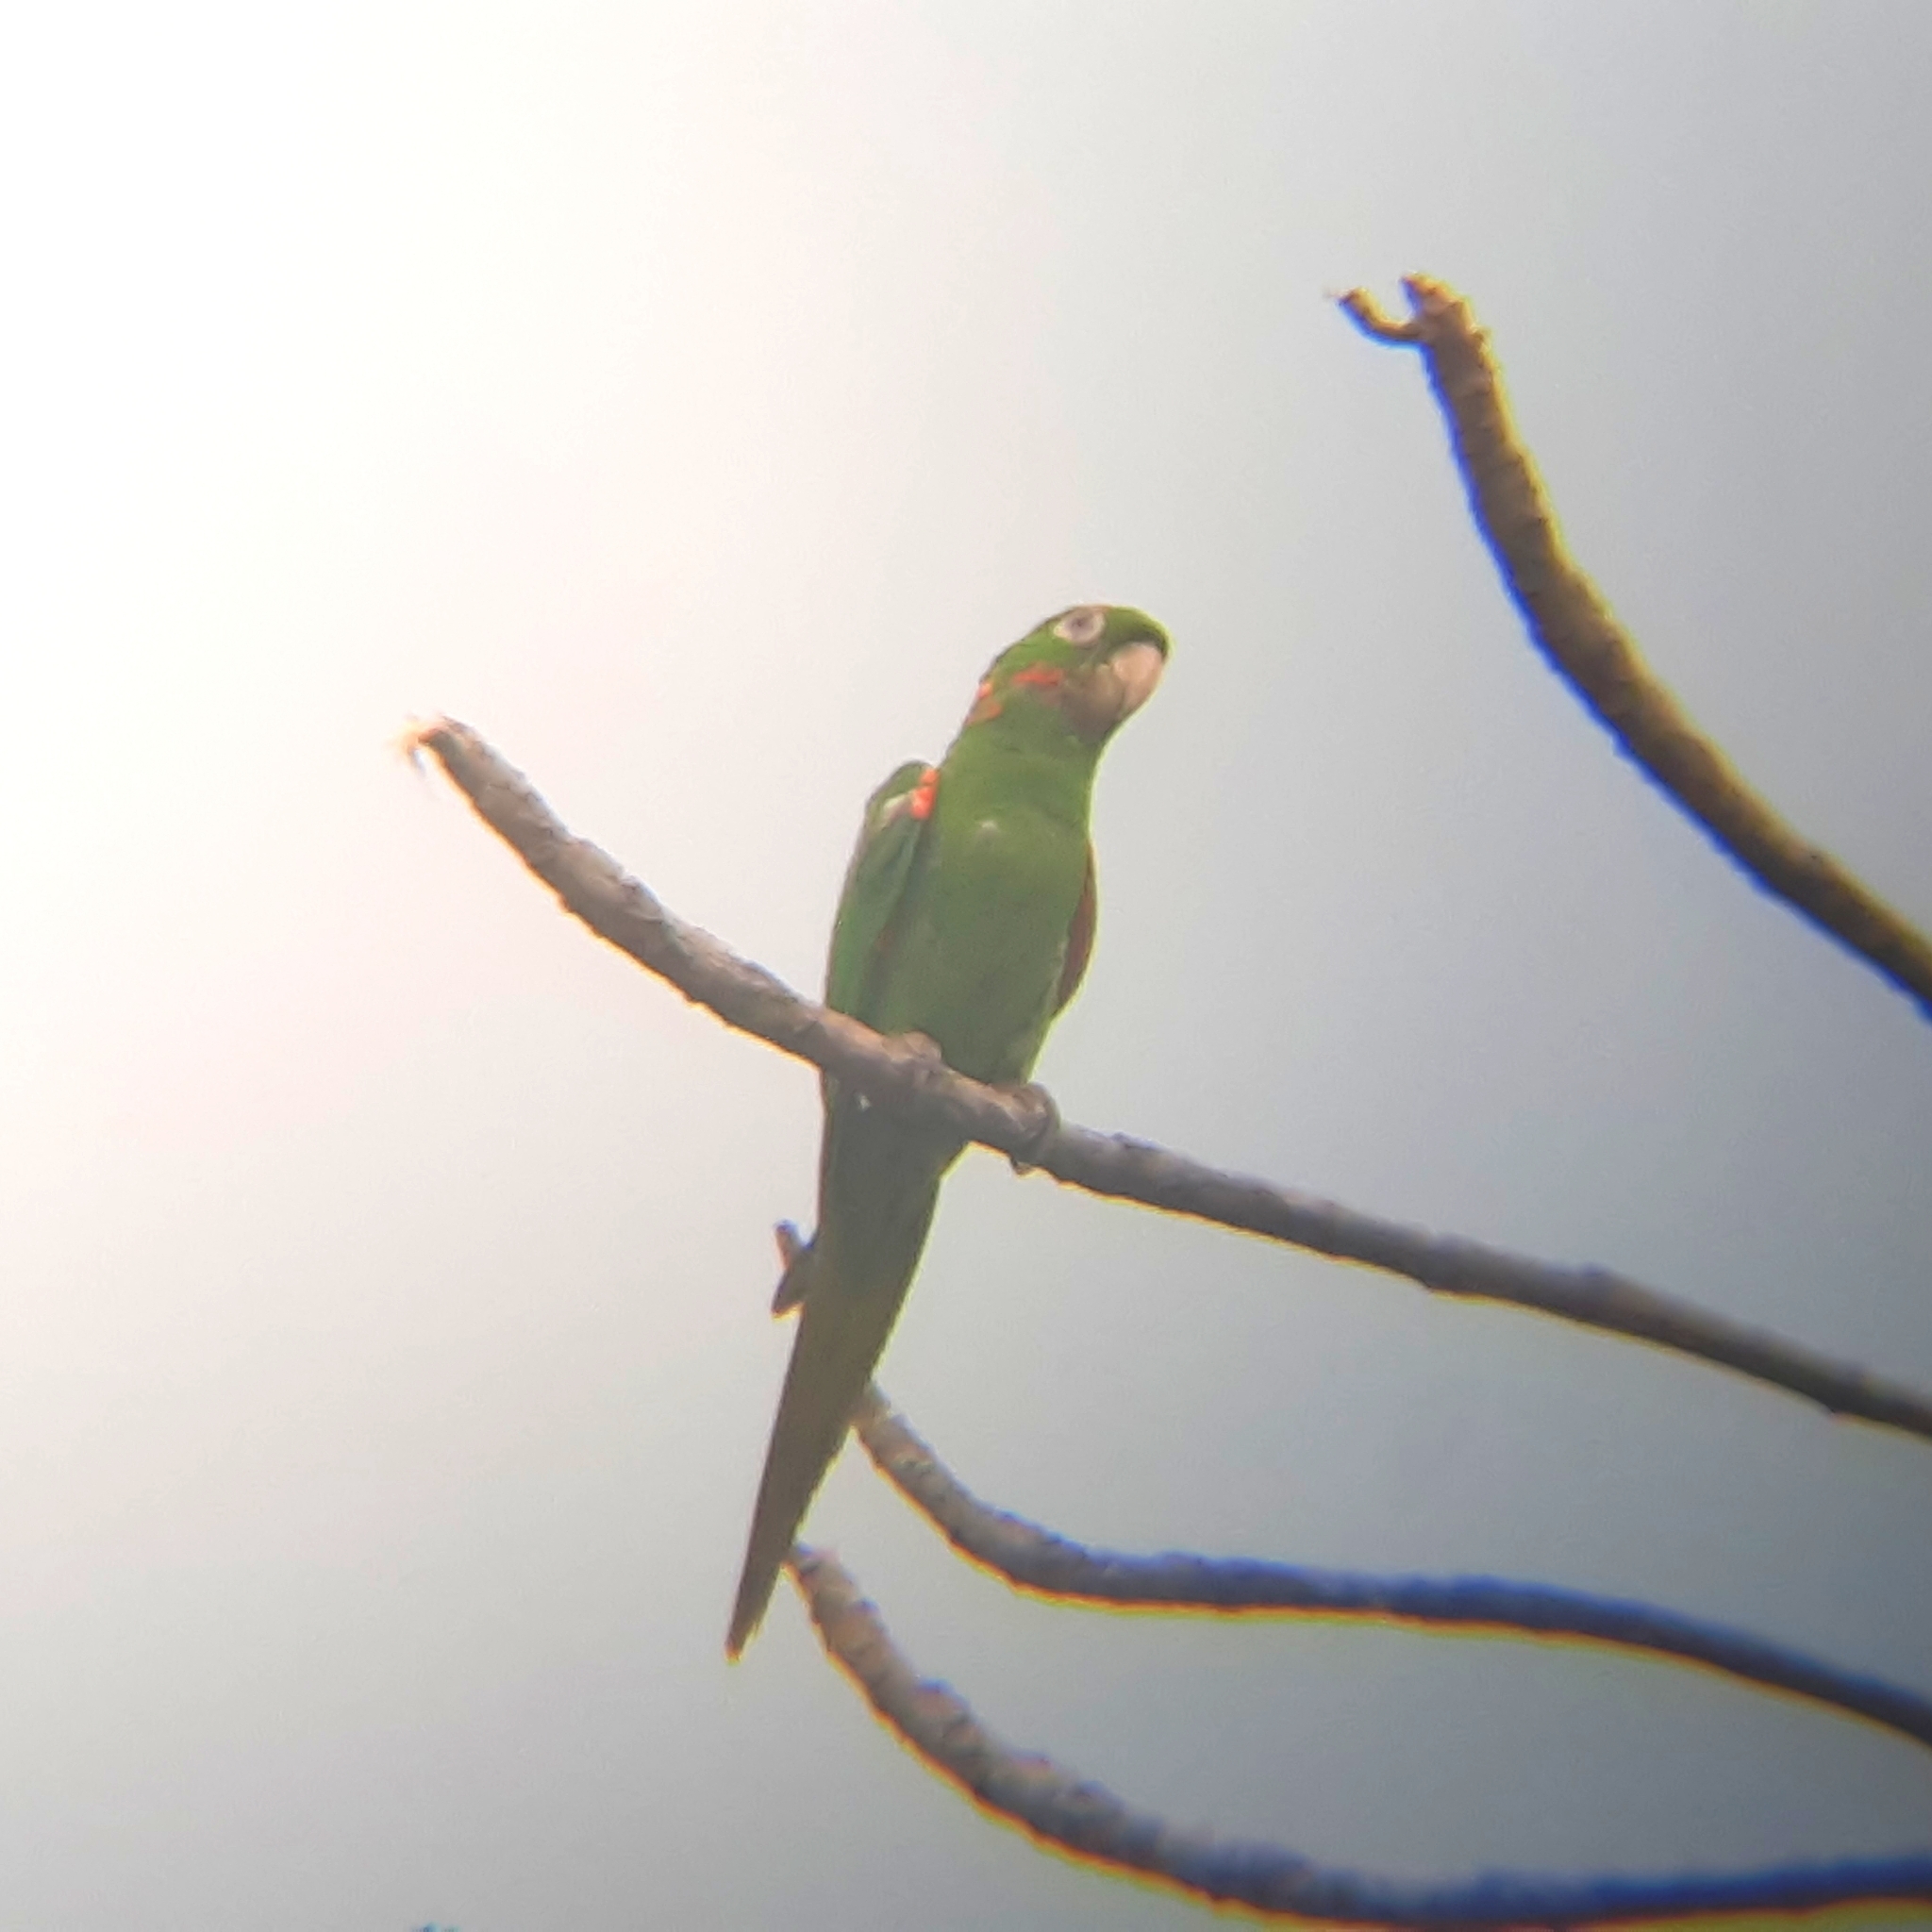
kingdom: Animalia
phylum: Chordata
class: Aves
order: Psittaciformes
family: Psittacidae
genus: Aratinga
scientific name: Aratinga leucophthalma
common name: White-eyed parakeet
